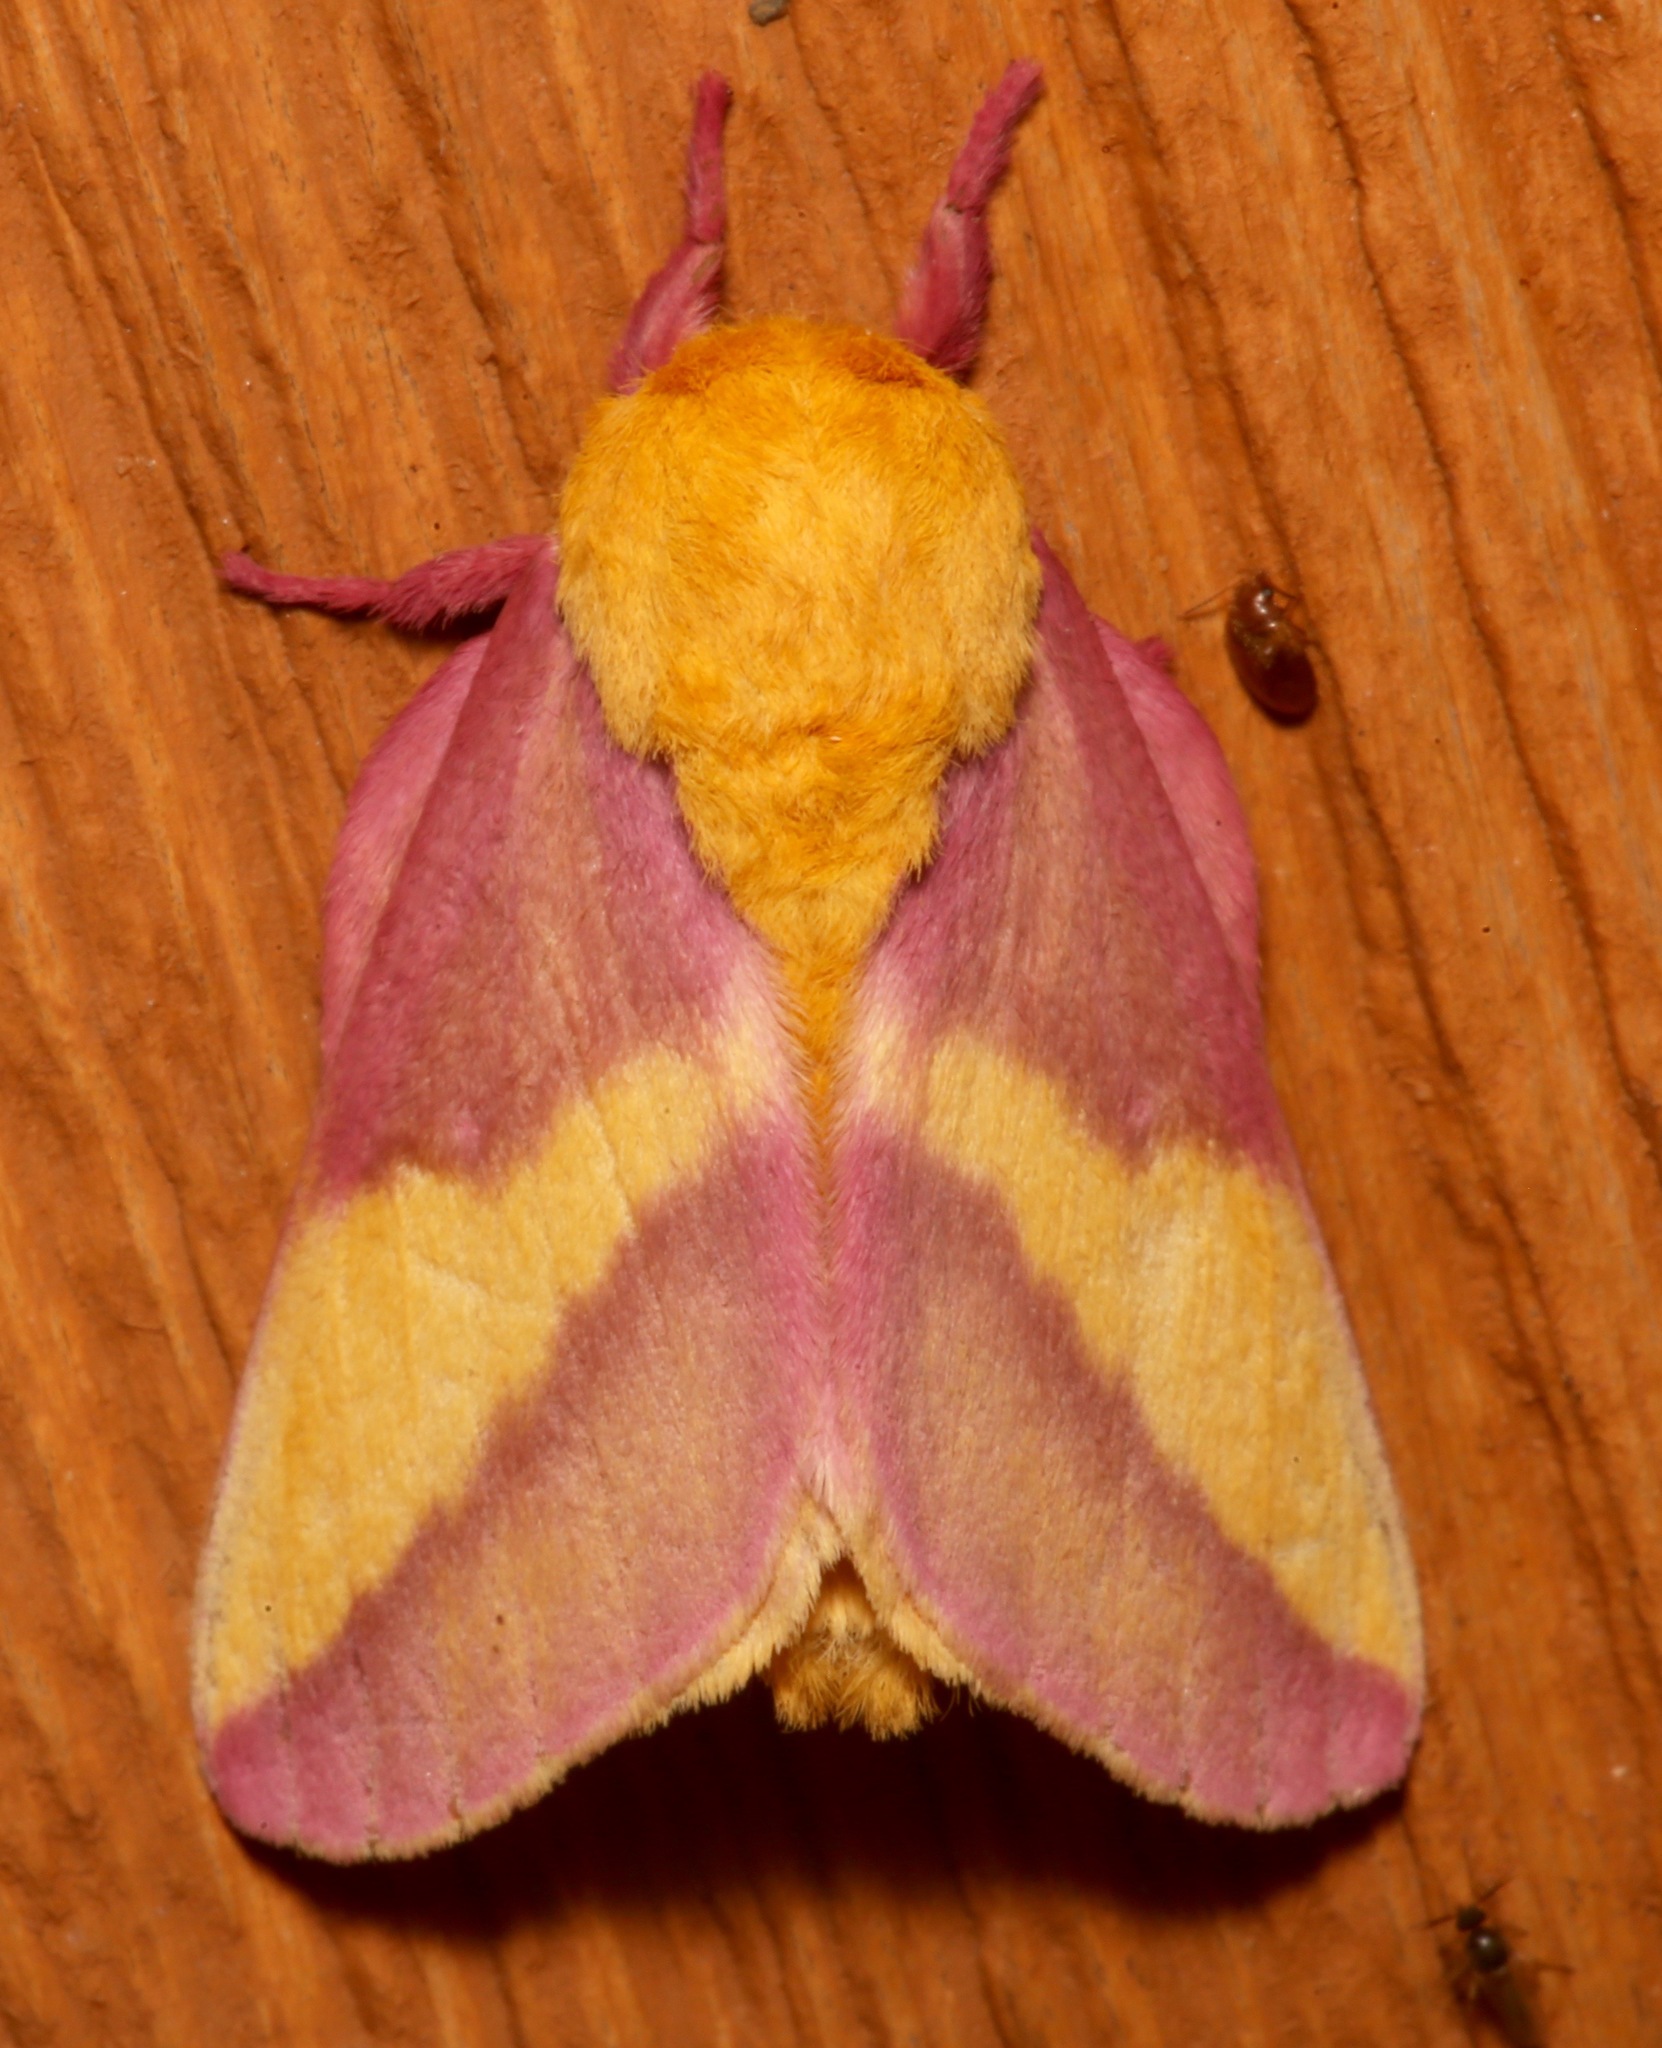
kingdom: Animalia
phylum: Arthropoda
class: Insecta
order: Lepidoptera
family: Saturniidae
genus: Dryocampa
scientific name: Dryocampa rubicunda
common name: Rosy maple moth
